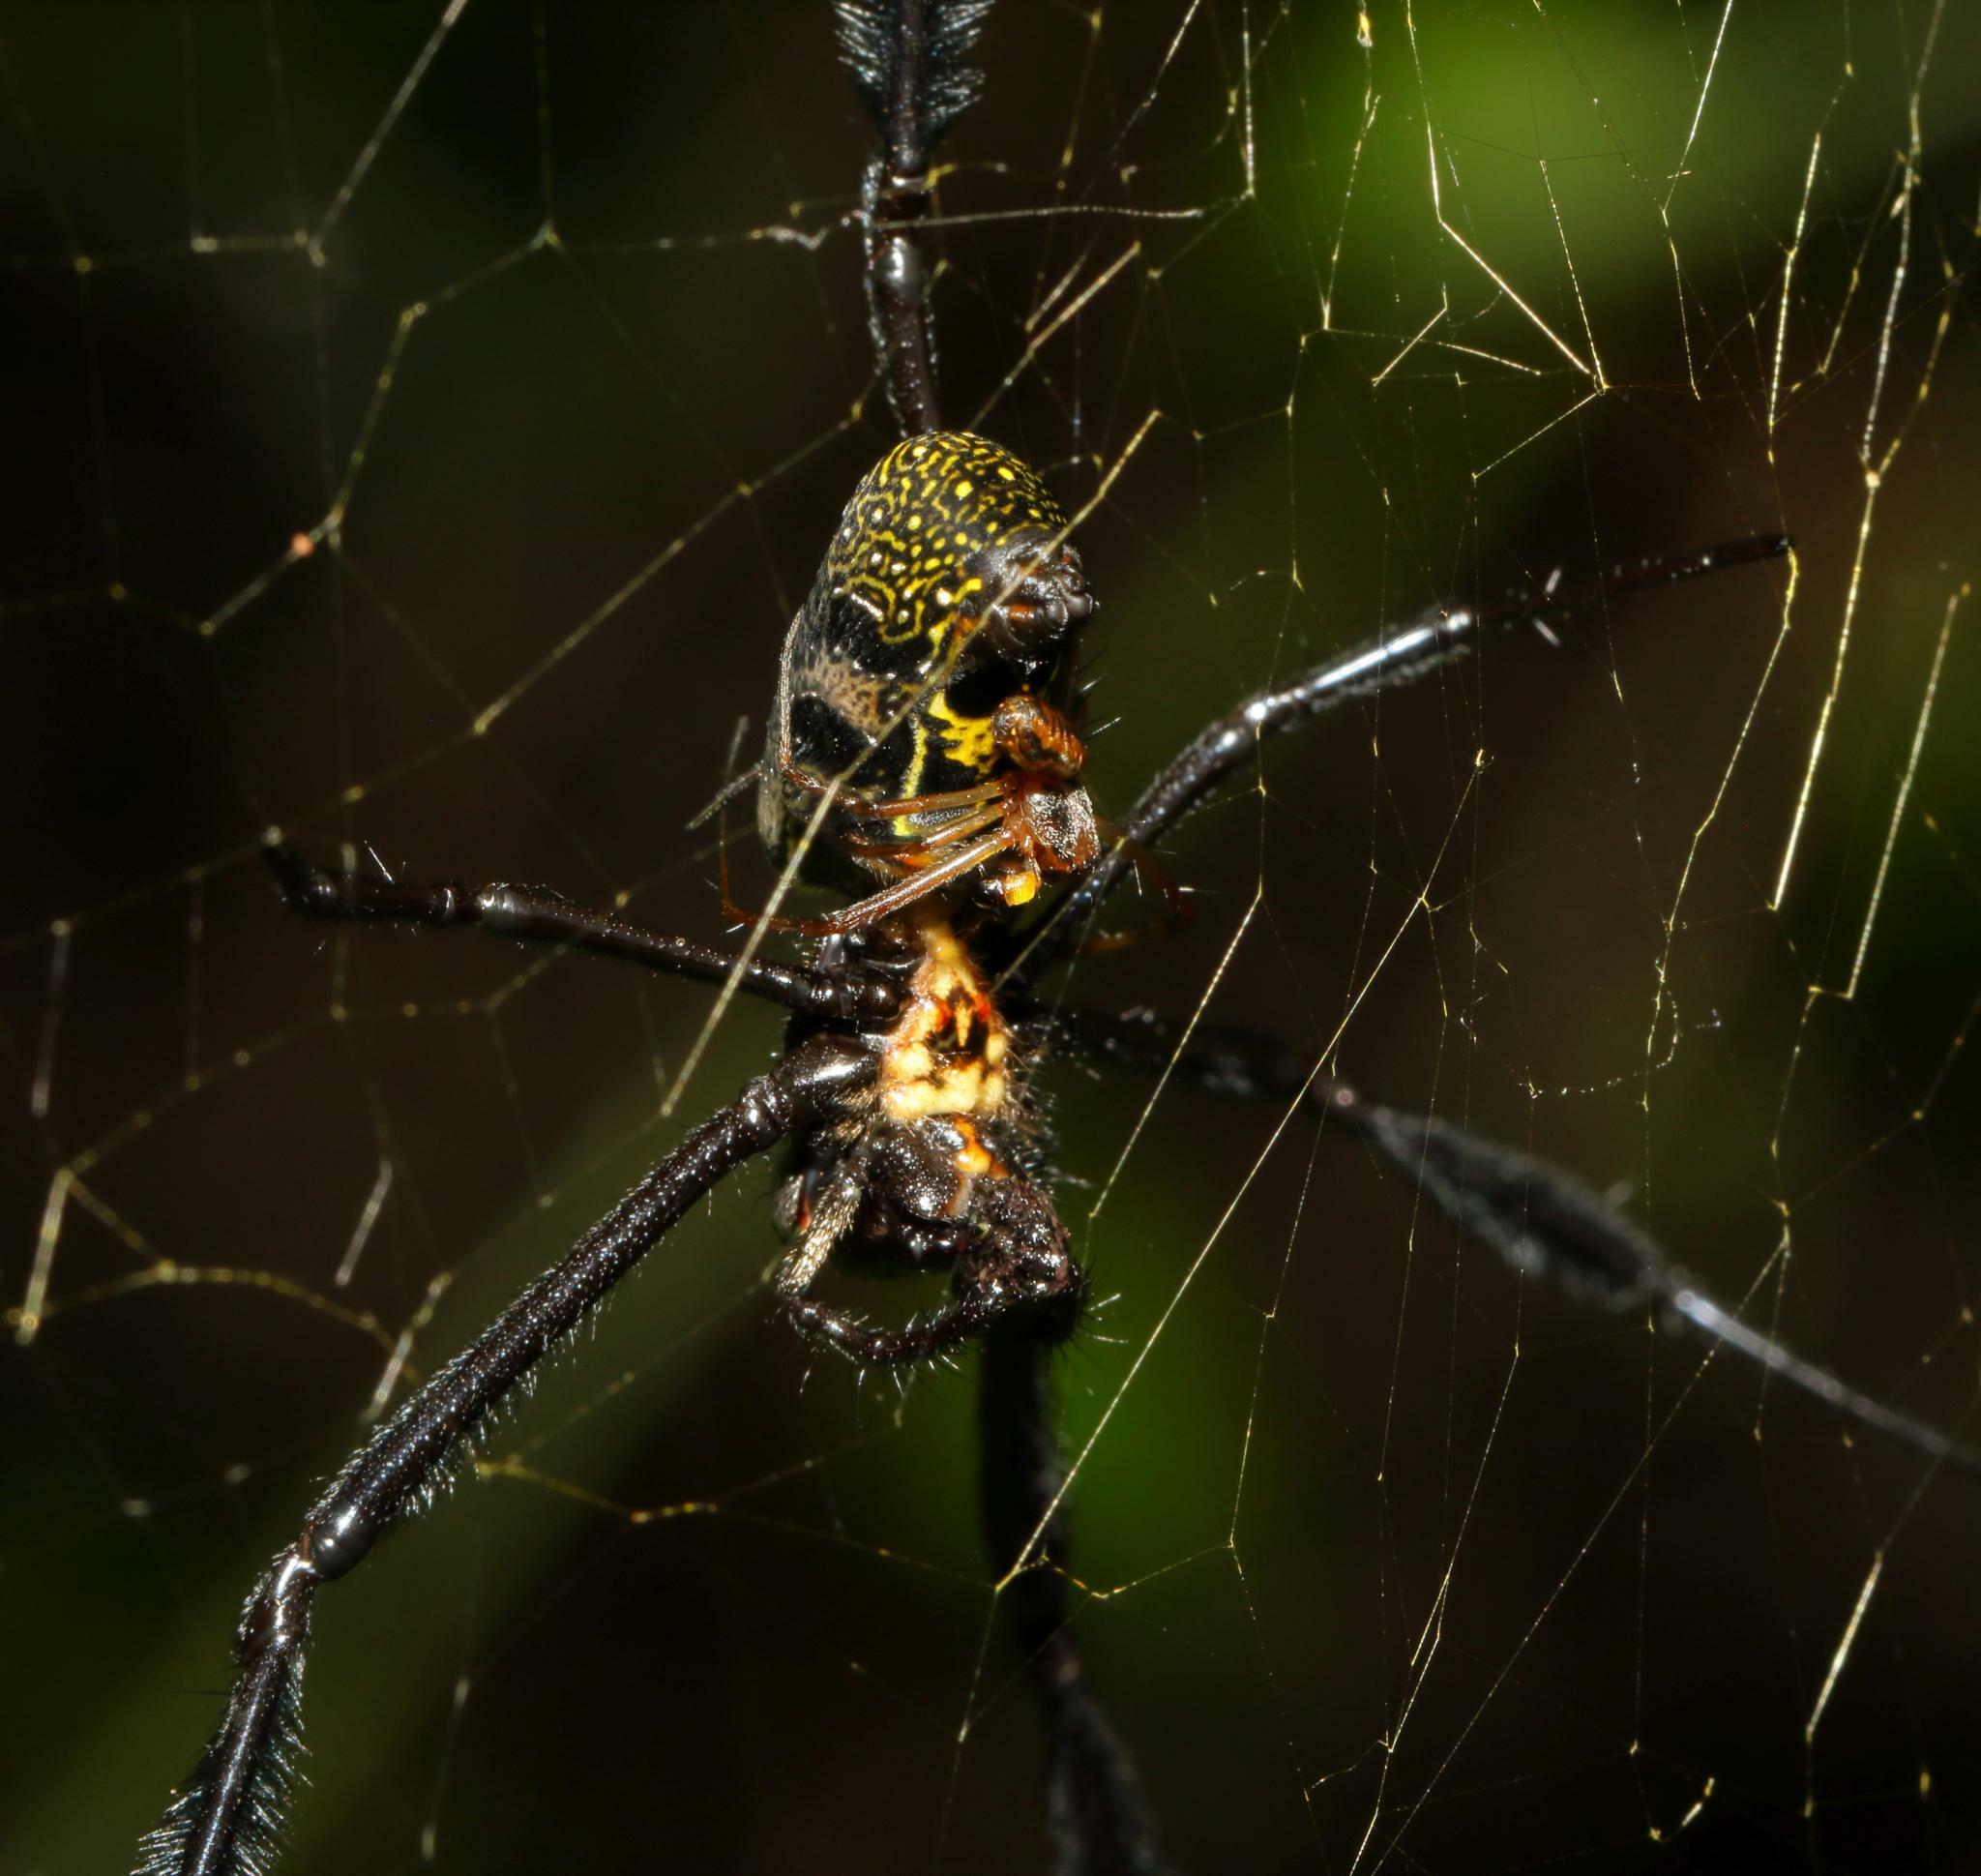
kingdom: Animalia
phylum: Arthropoda
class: Arachnida
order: Araneae
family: Araneidae
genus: Trichonephila
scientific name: Trichonephila fenestrata
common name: Hairy golden orb weaver
